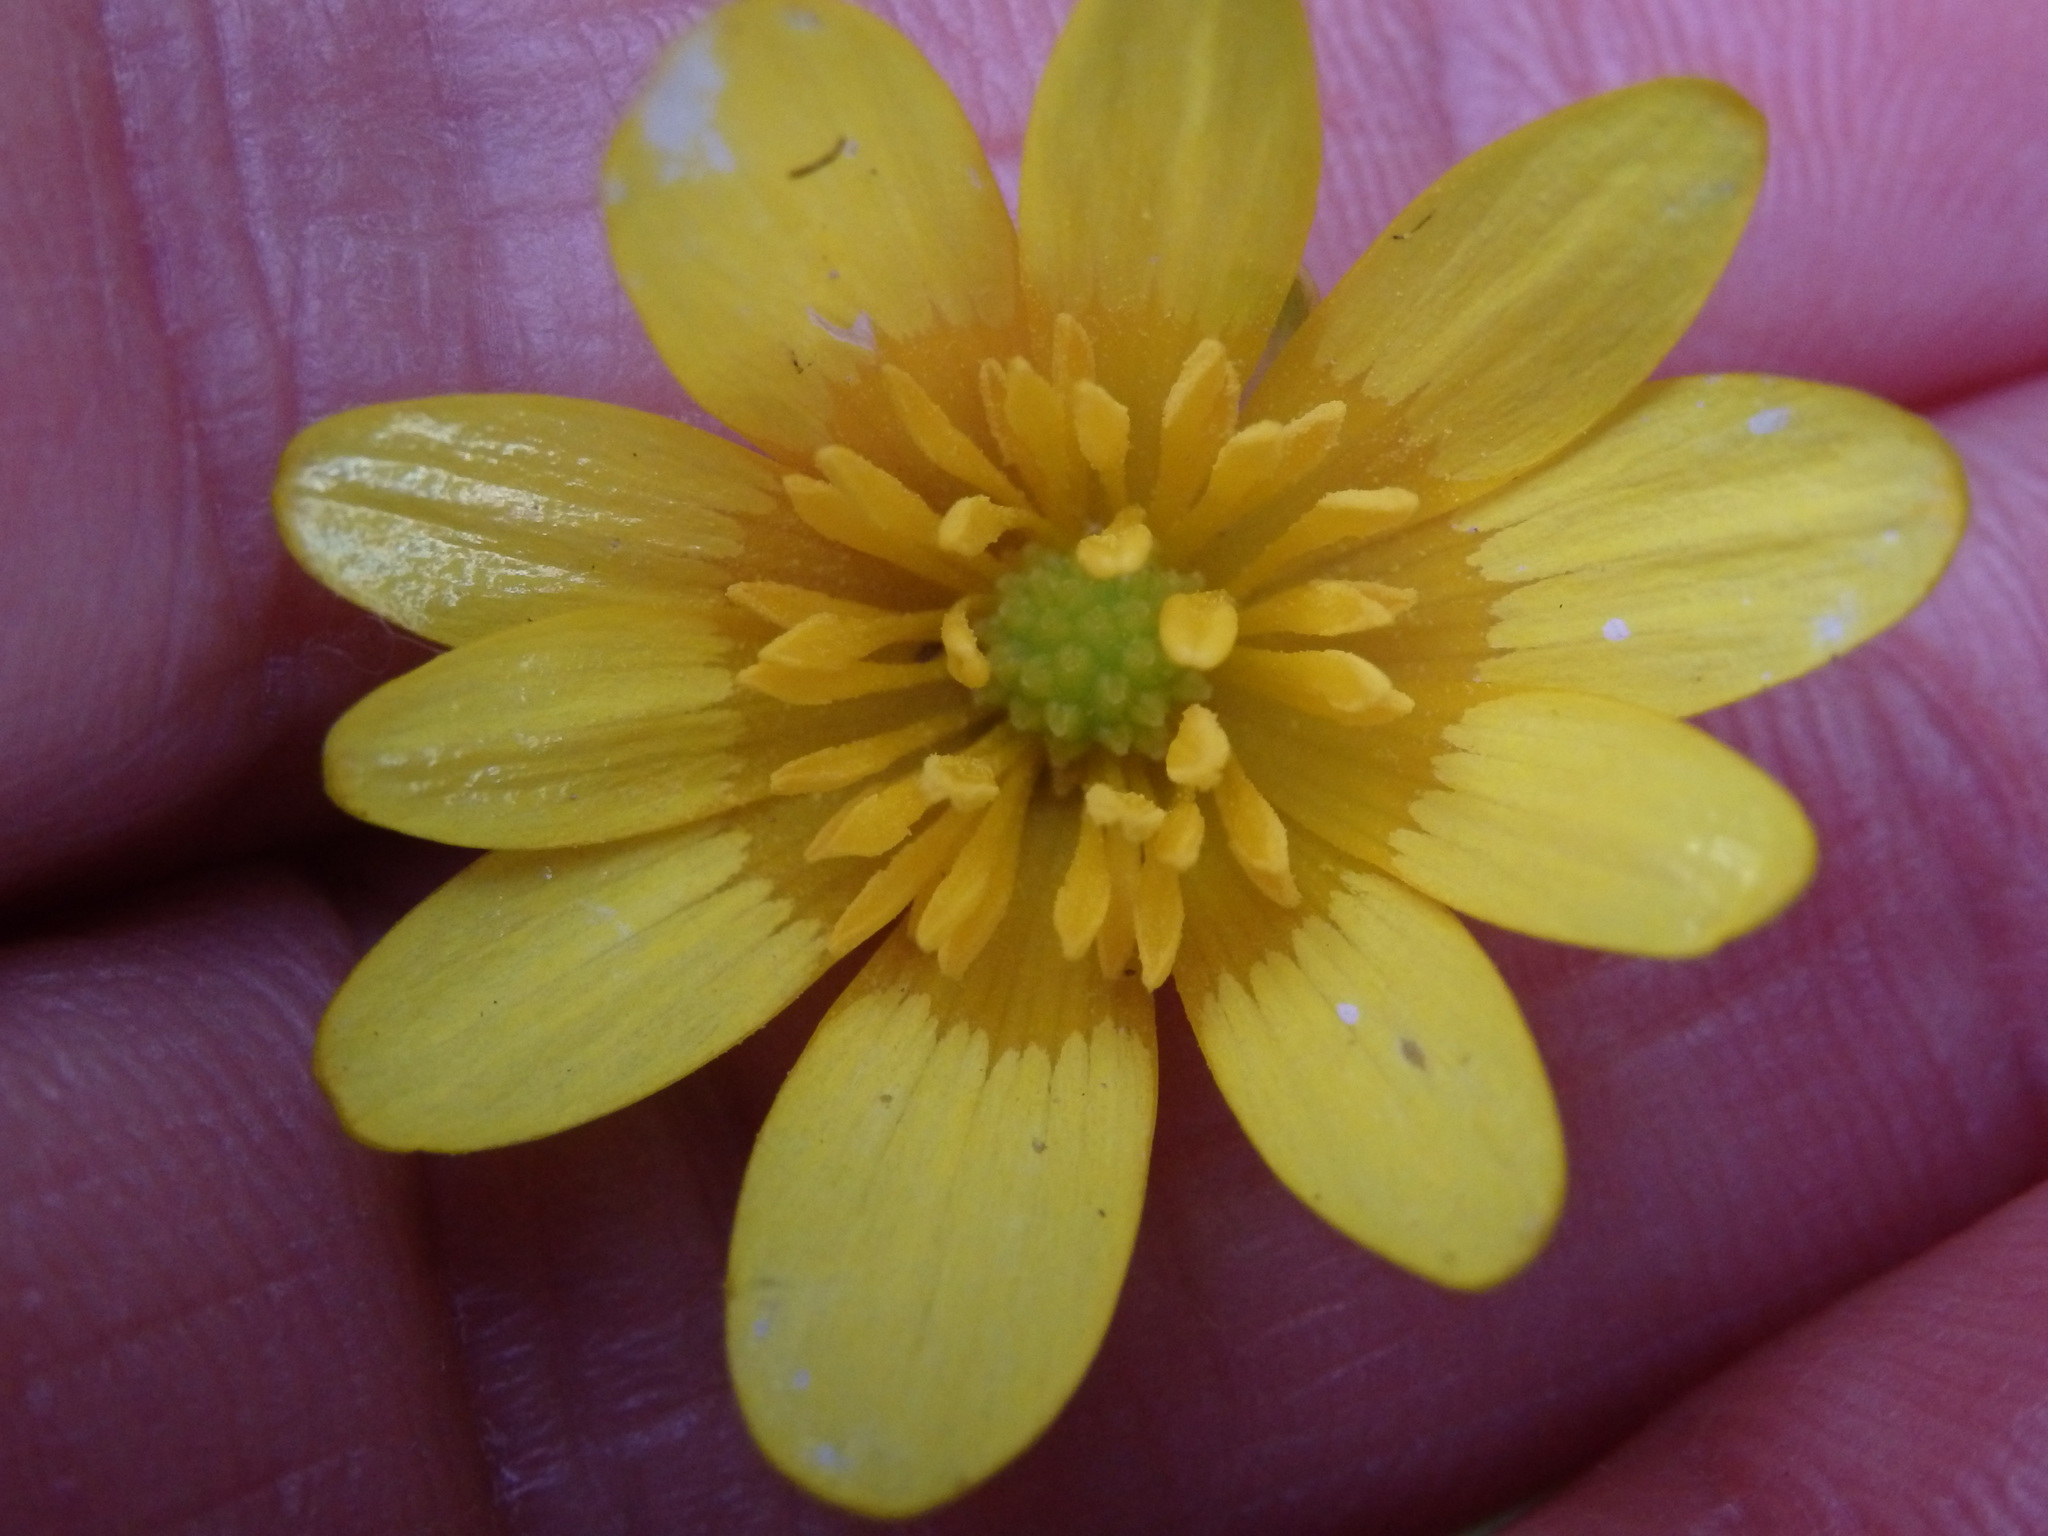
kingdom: Plantae
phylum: Tracheophyta
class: Magnoliopsida
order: Ranunculales
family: Ranunculaceae
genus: Ficaria
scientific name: Ficaria verna
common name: Lesser celandine
